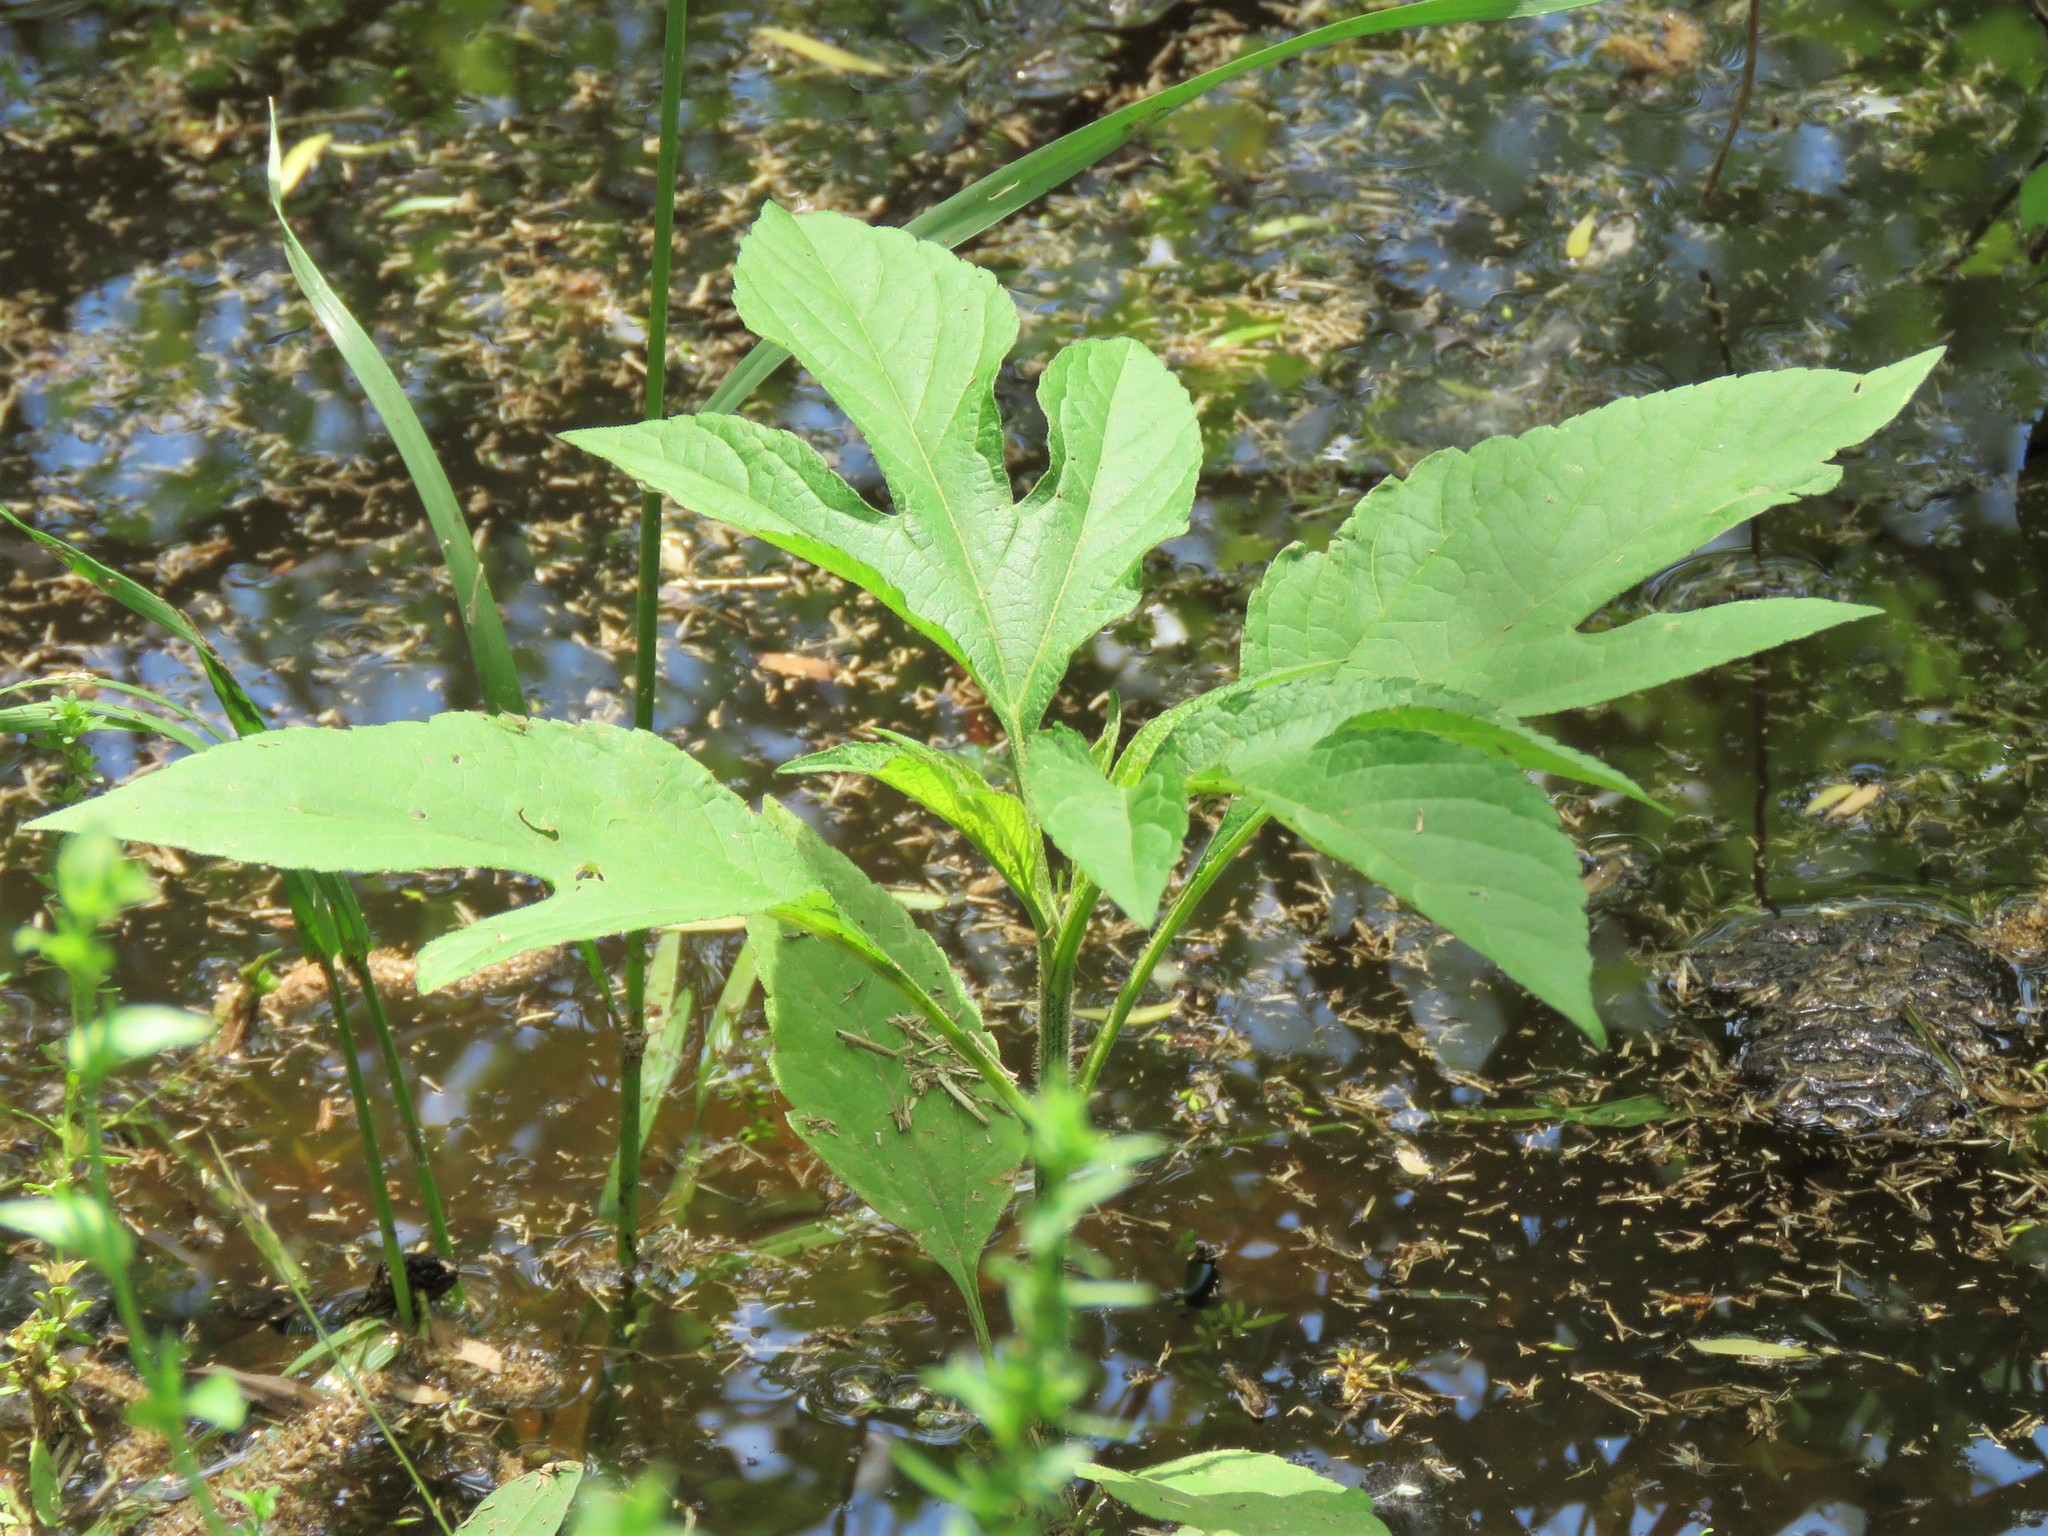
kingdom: Plantae
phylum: Tracheophyta
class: Magnoliopsida
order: Asterales
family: Asteraceae
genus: Ambrosia
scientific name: Ambrosia trifida
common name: Giant ragweed
